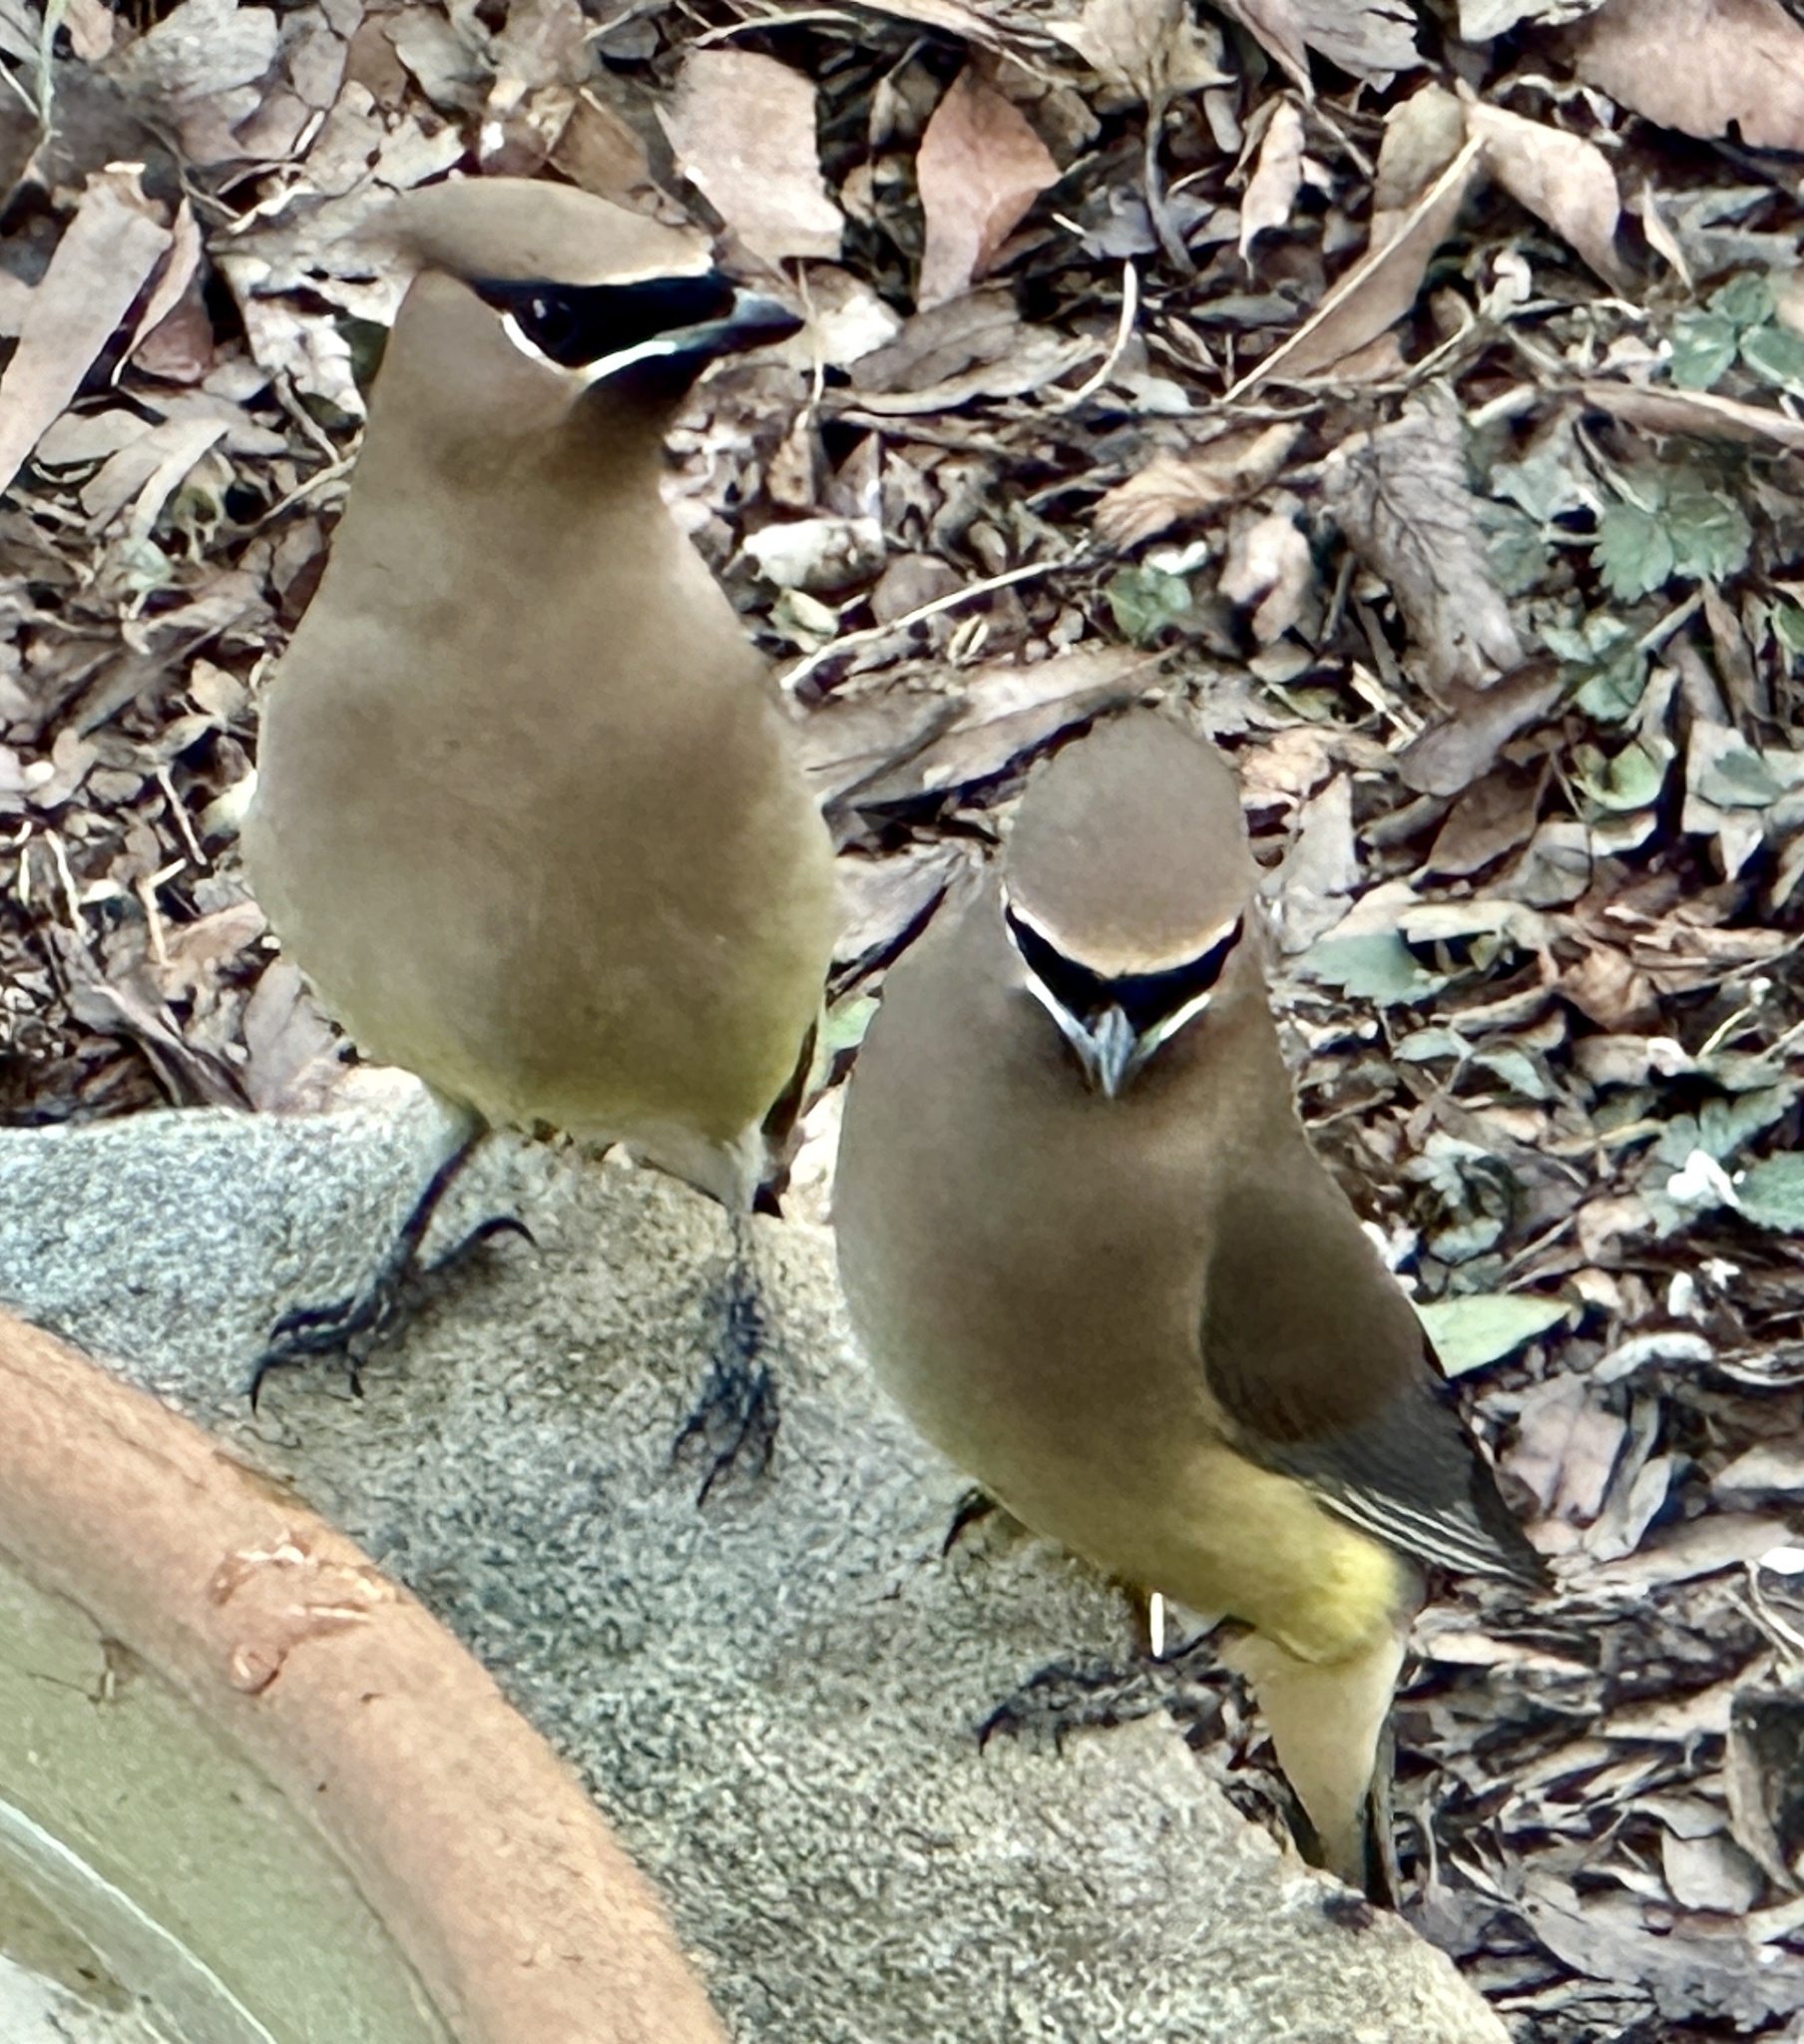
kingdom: Animalia
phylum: Chordata
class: Aves
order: Passeriformes
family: Bombycillidae
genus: Bombycilla
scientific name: Bombycilla cedrorum
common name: Cedar waxwing
